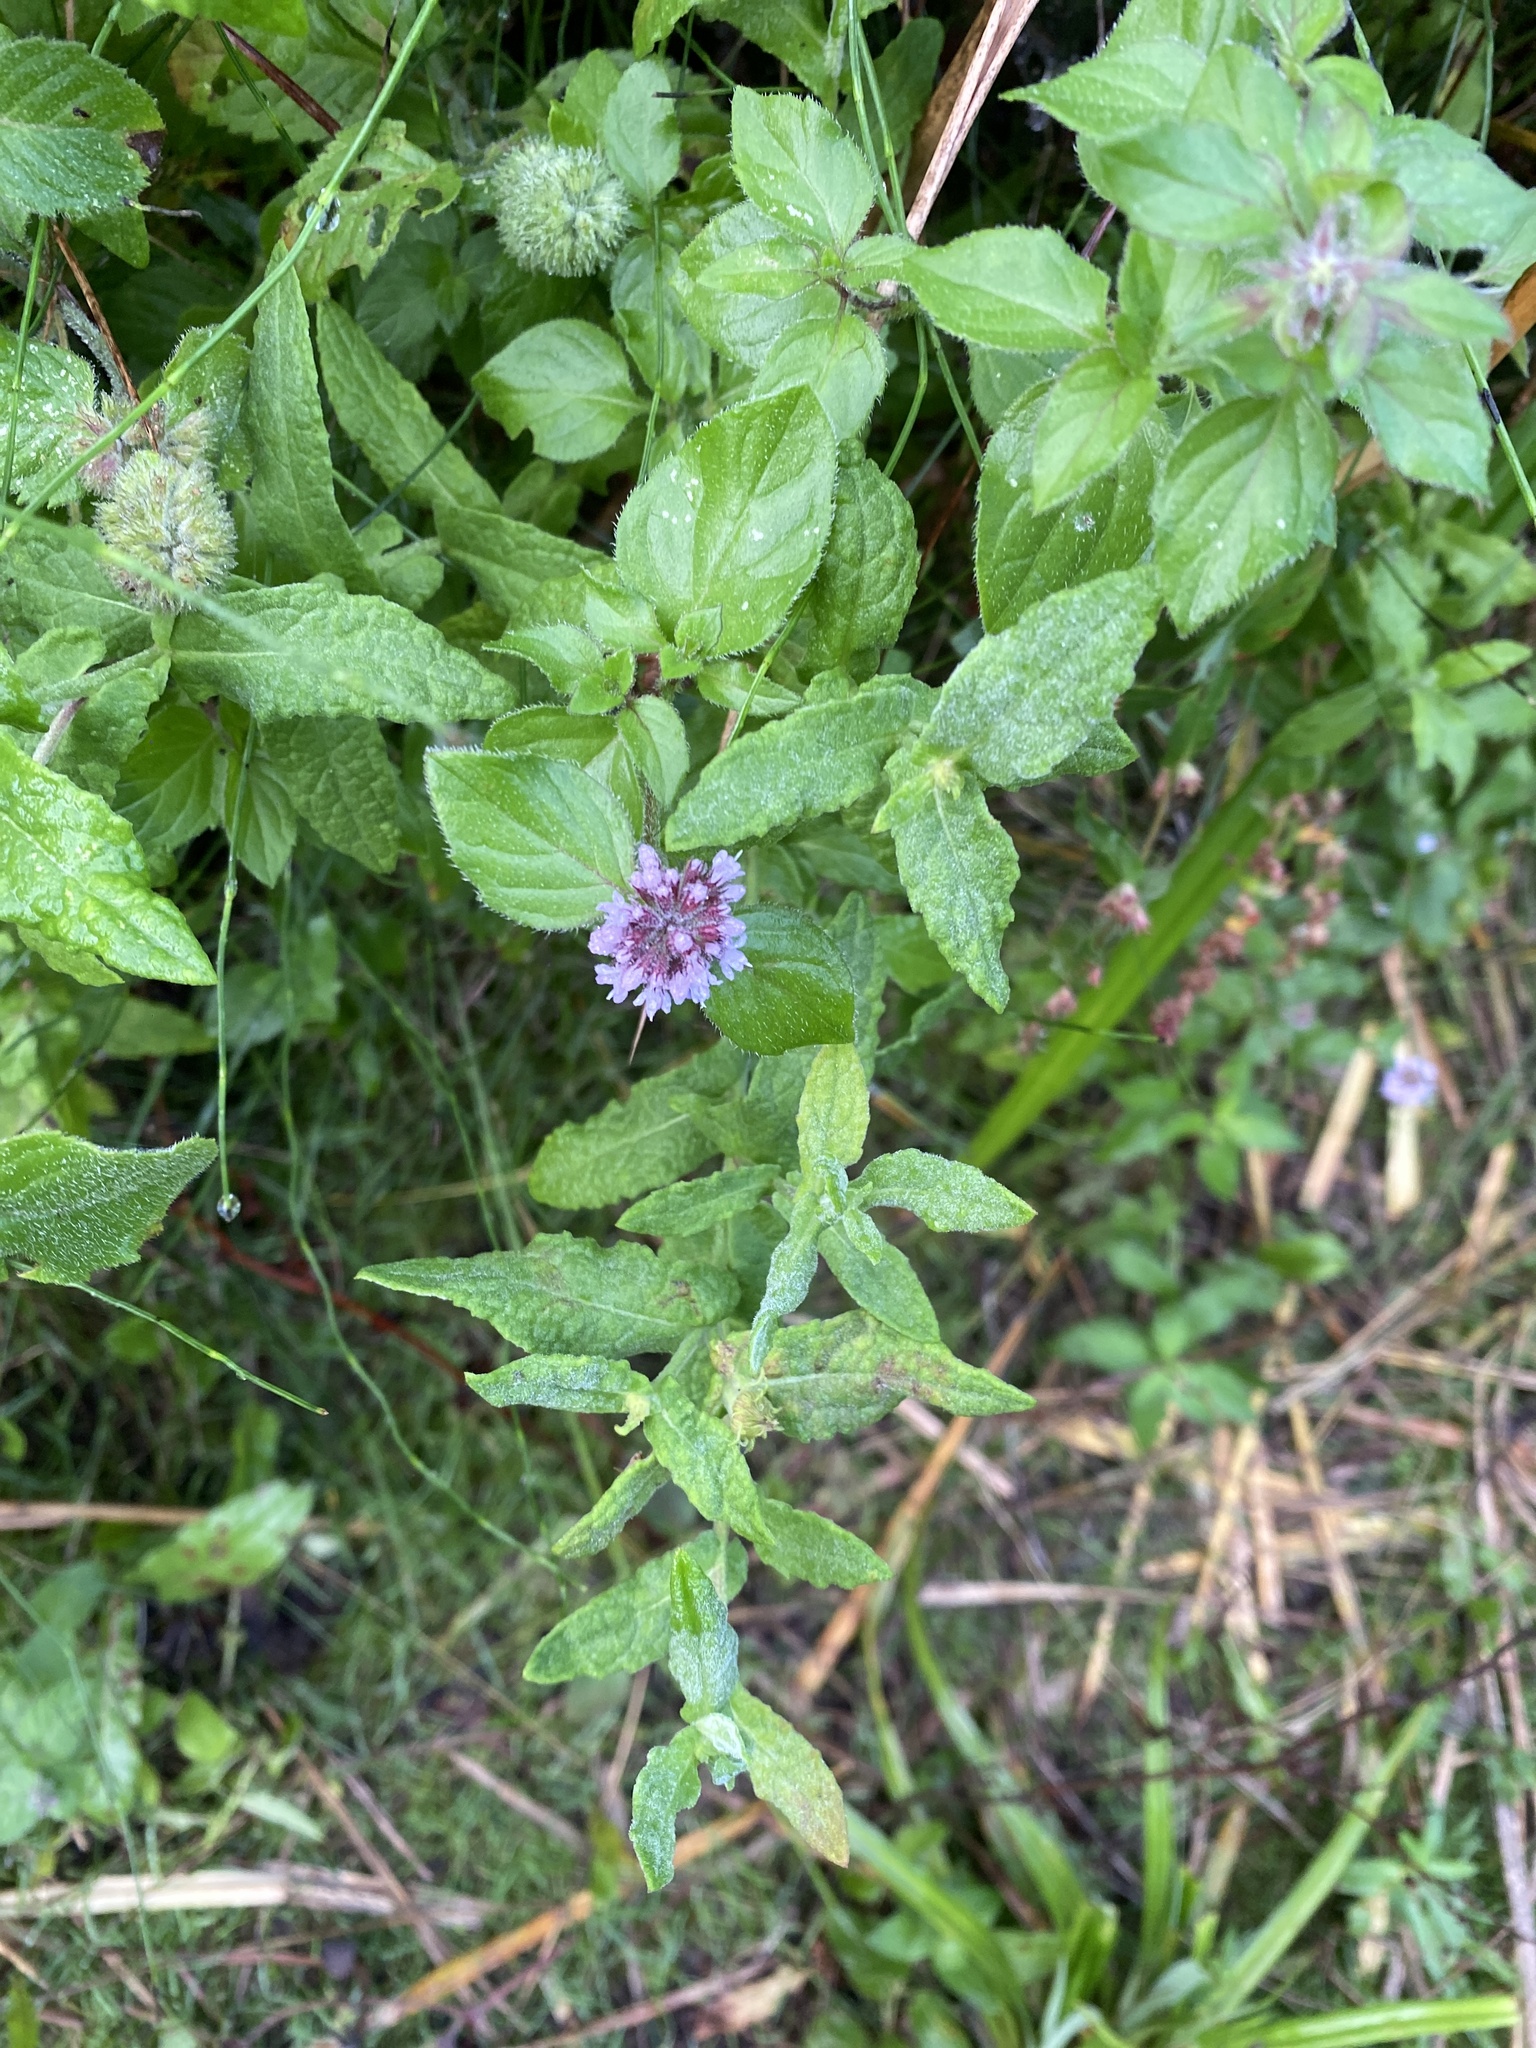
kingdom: Plantae
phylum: Tracheophyta
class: Magnoliopsida
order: Lamiales
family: Lamiaceae
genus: Mentha
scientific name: Mentha aquatica
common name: Water mint
